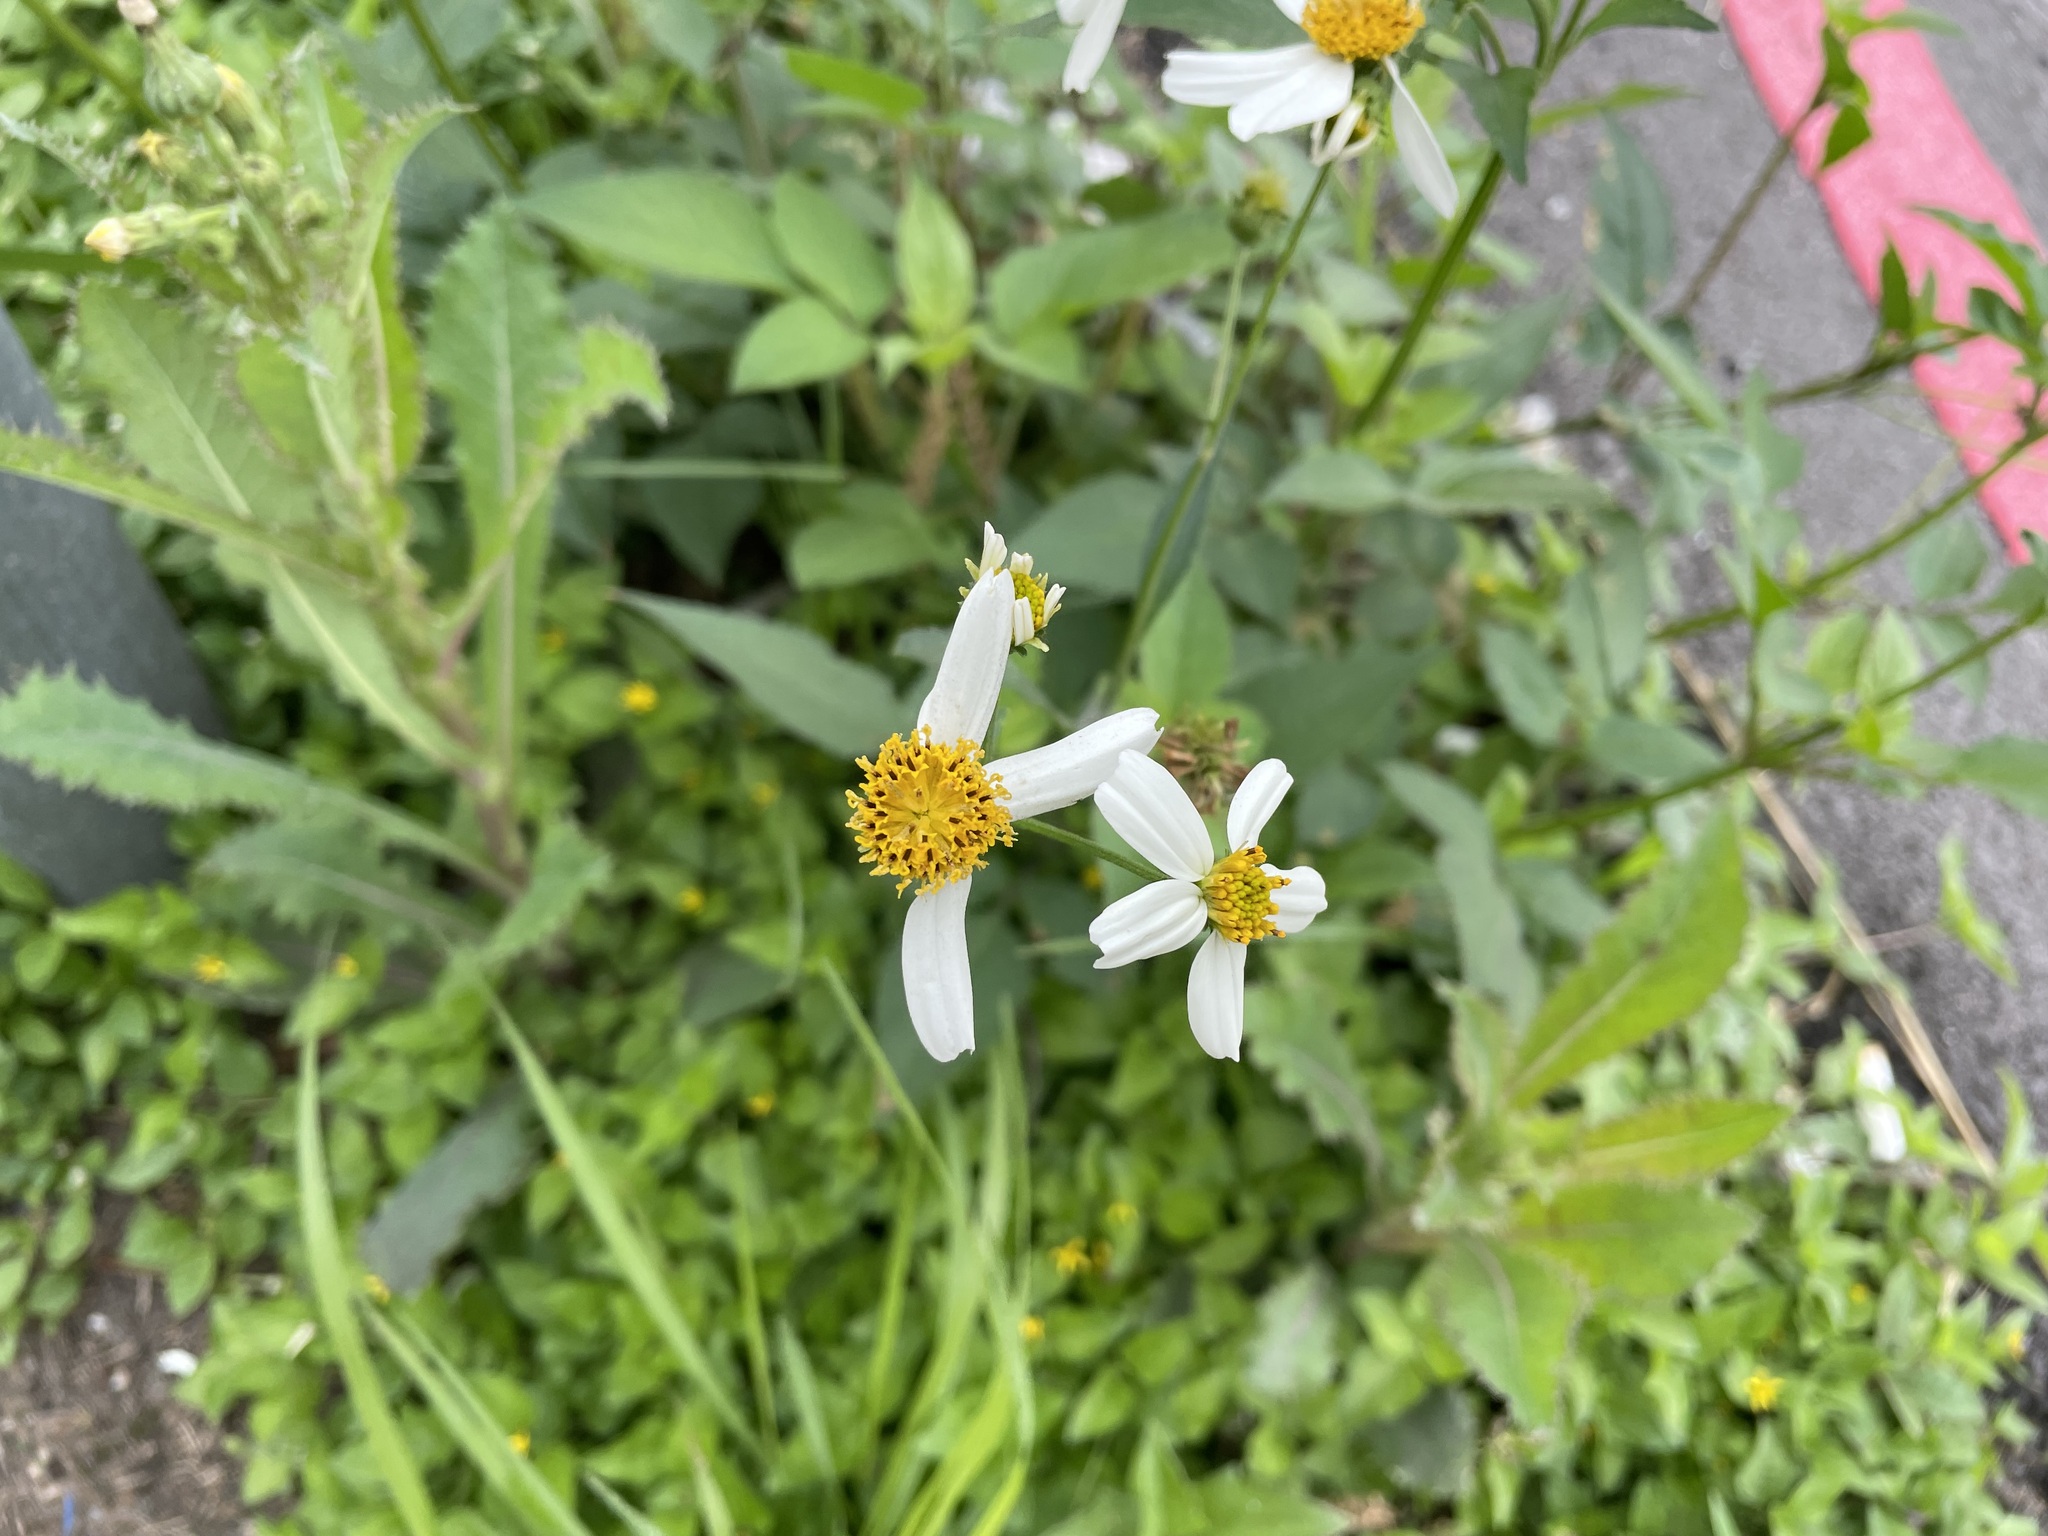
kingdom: Plantae
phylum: Tracheophyta
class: Magnoliopsida
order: Asterales
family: Asteraceae
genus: Bidens
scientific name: Bidens alba
